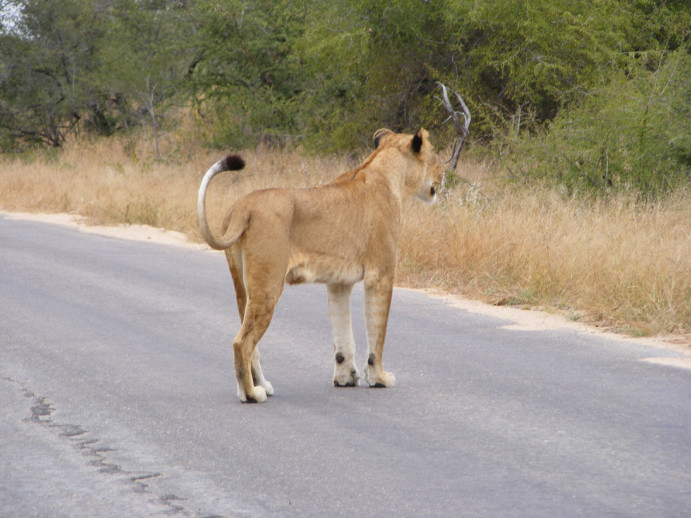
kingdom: Animalia
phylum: Chordata
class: Mammalia
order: Carnivora
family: Felidae
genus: Panthera
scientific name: Panthera leo
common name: Lion
